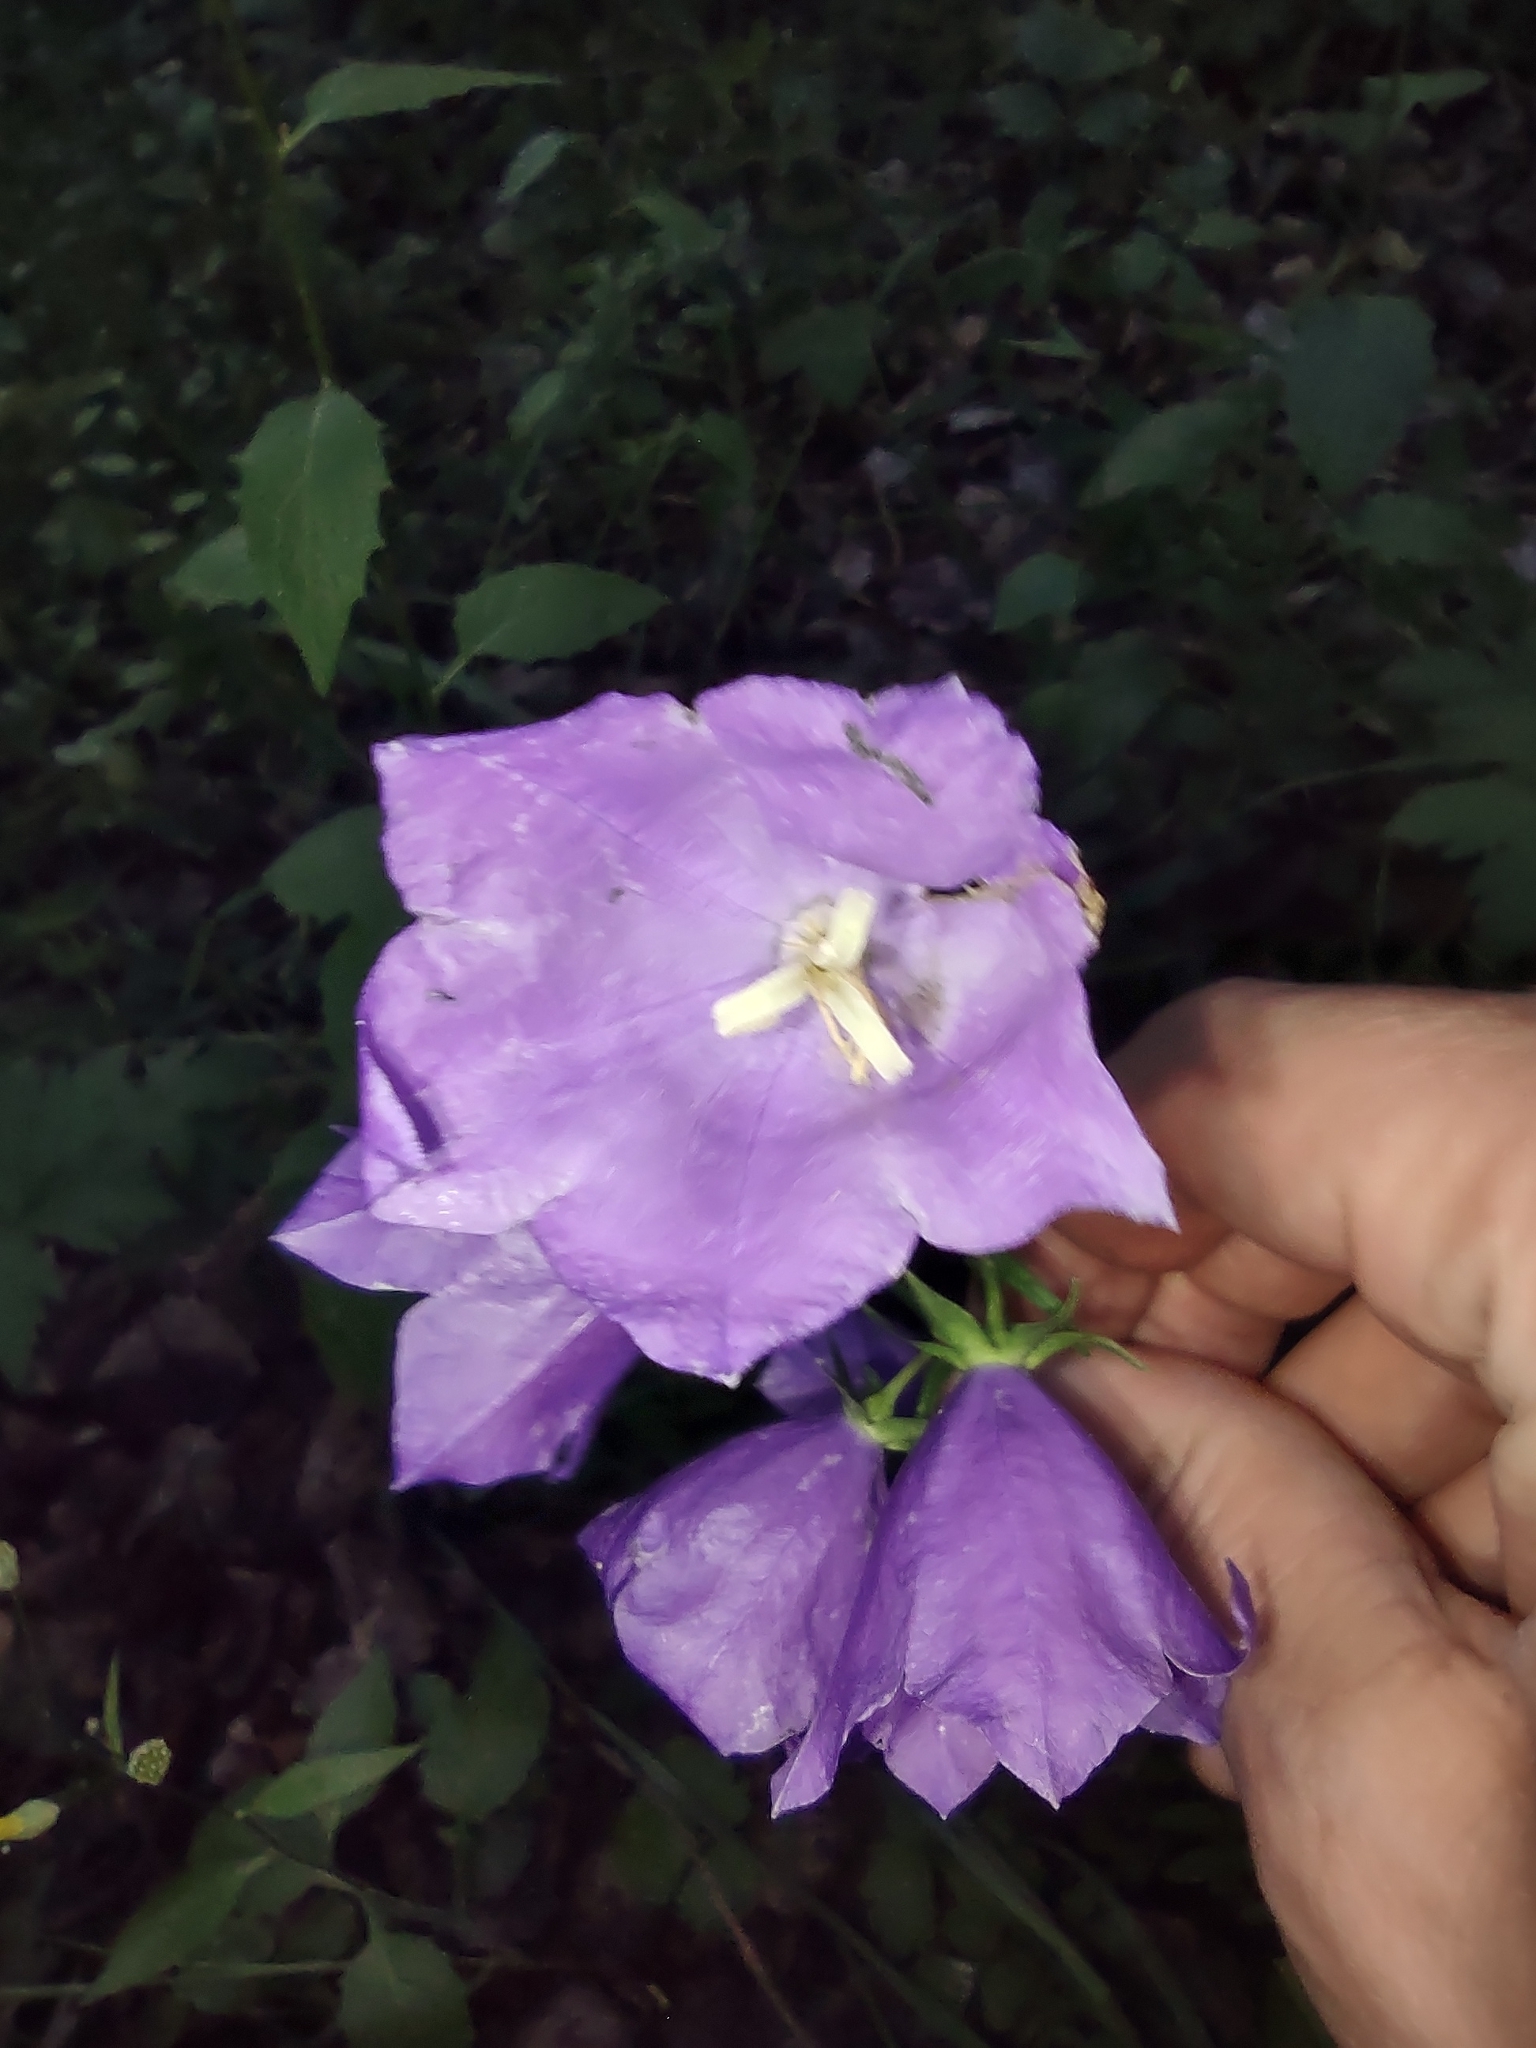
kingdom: Plantae
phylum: Tracheophyta
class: Magnoliopsida
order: Asterales
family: Campanulaceae
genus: Campanula
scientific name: Campanula persicifolia
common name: Peach-leaved bellflower
